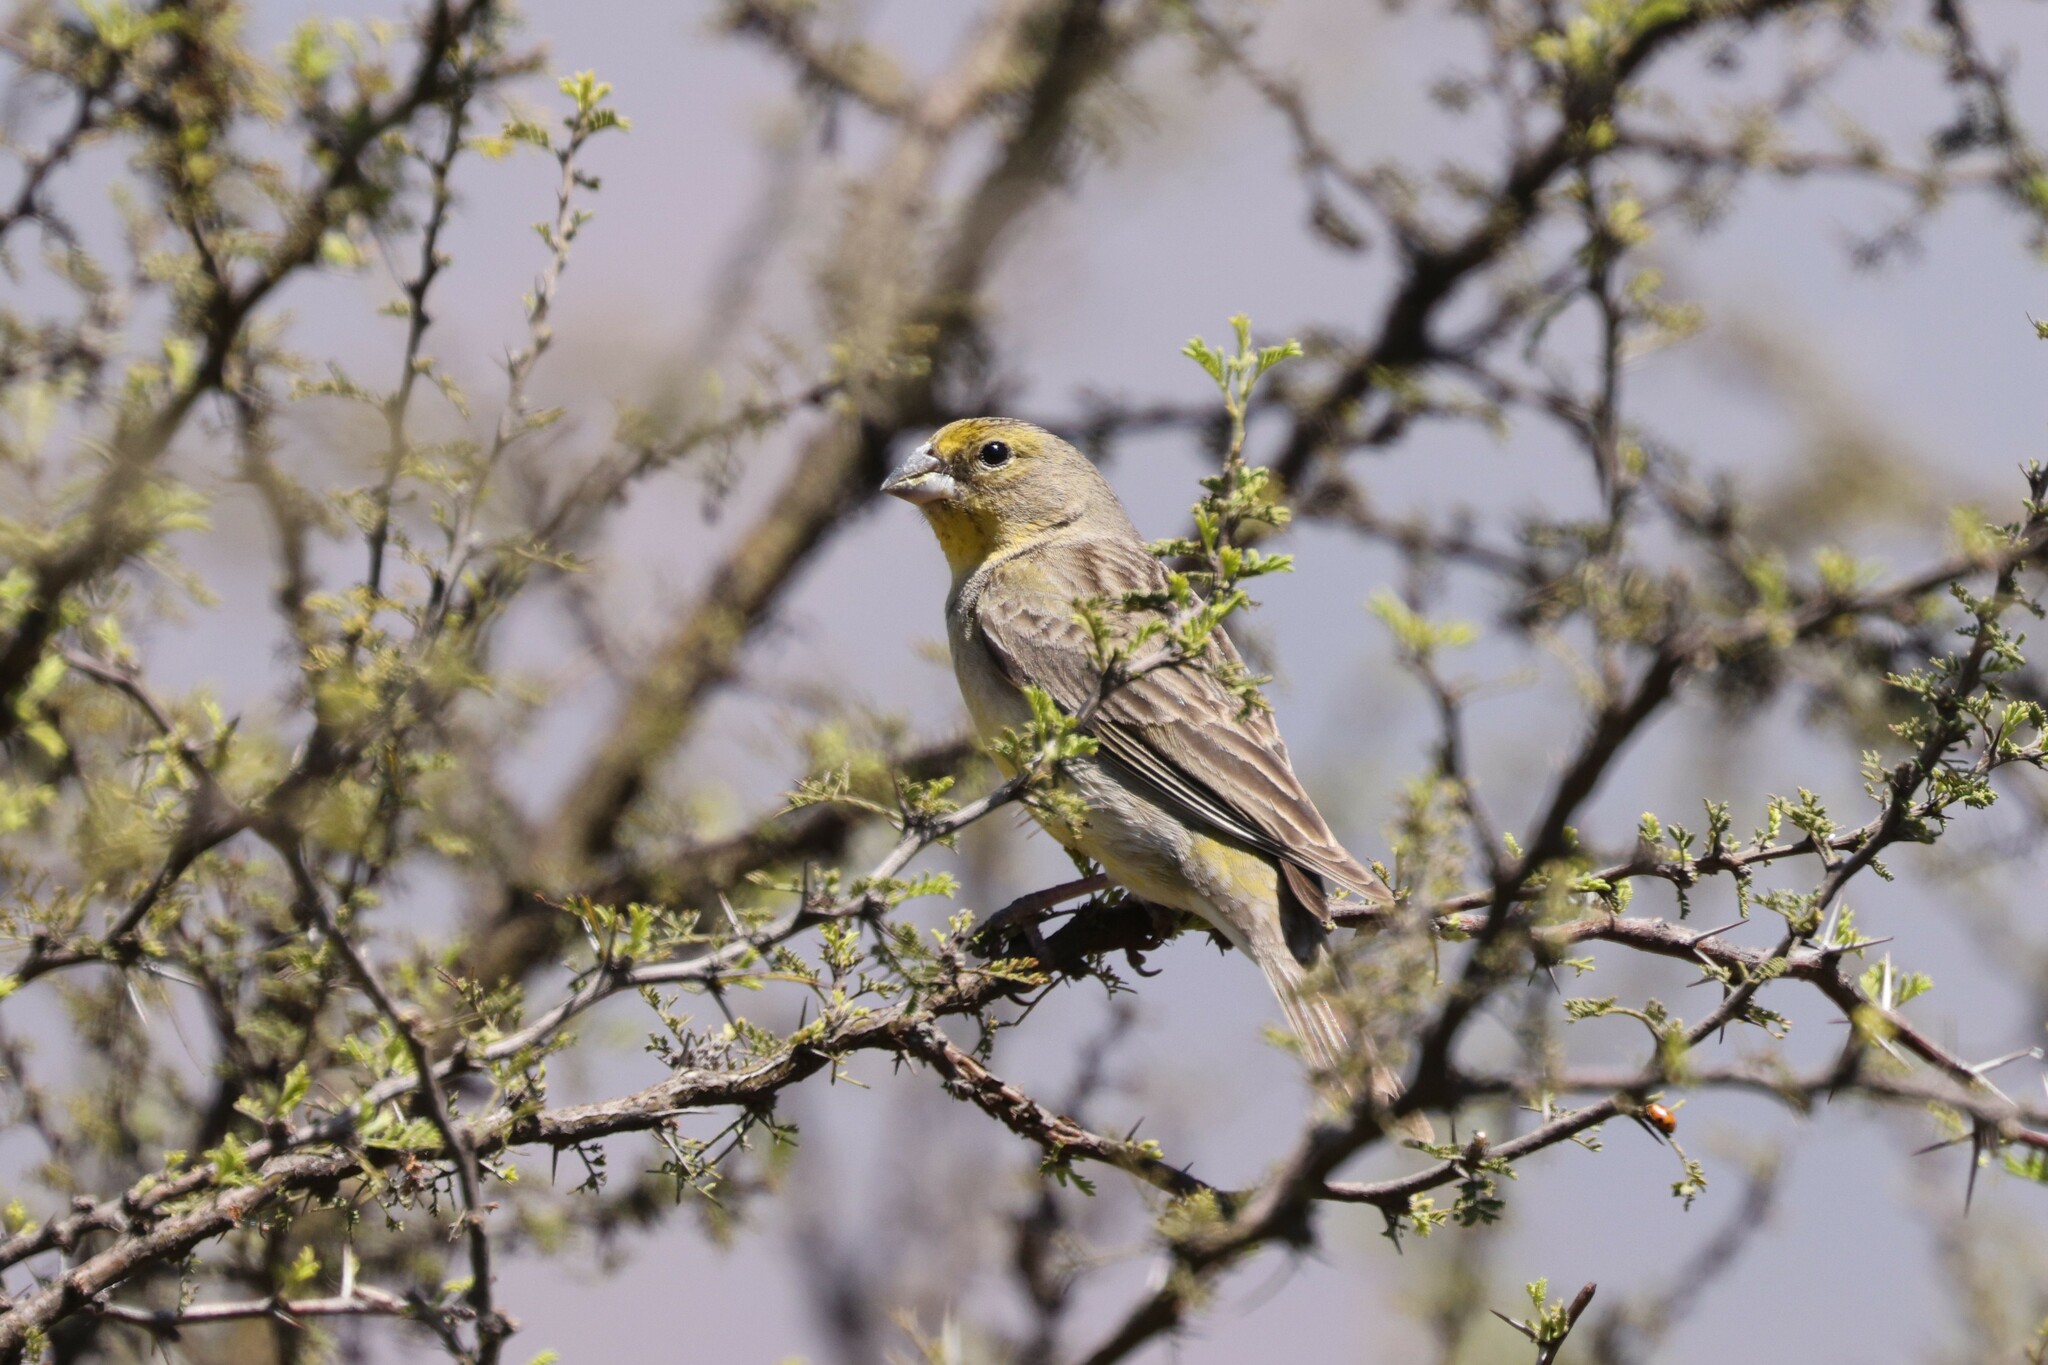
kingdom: Animalia
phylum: Chordata
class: Aves
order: Passeriformes
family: Thraupidae
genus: Sicalis
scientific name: Sicalis luteola
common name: Grassland yellow-finch
